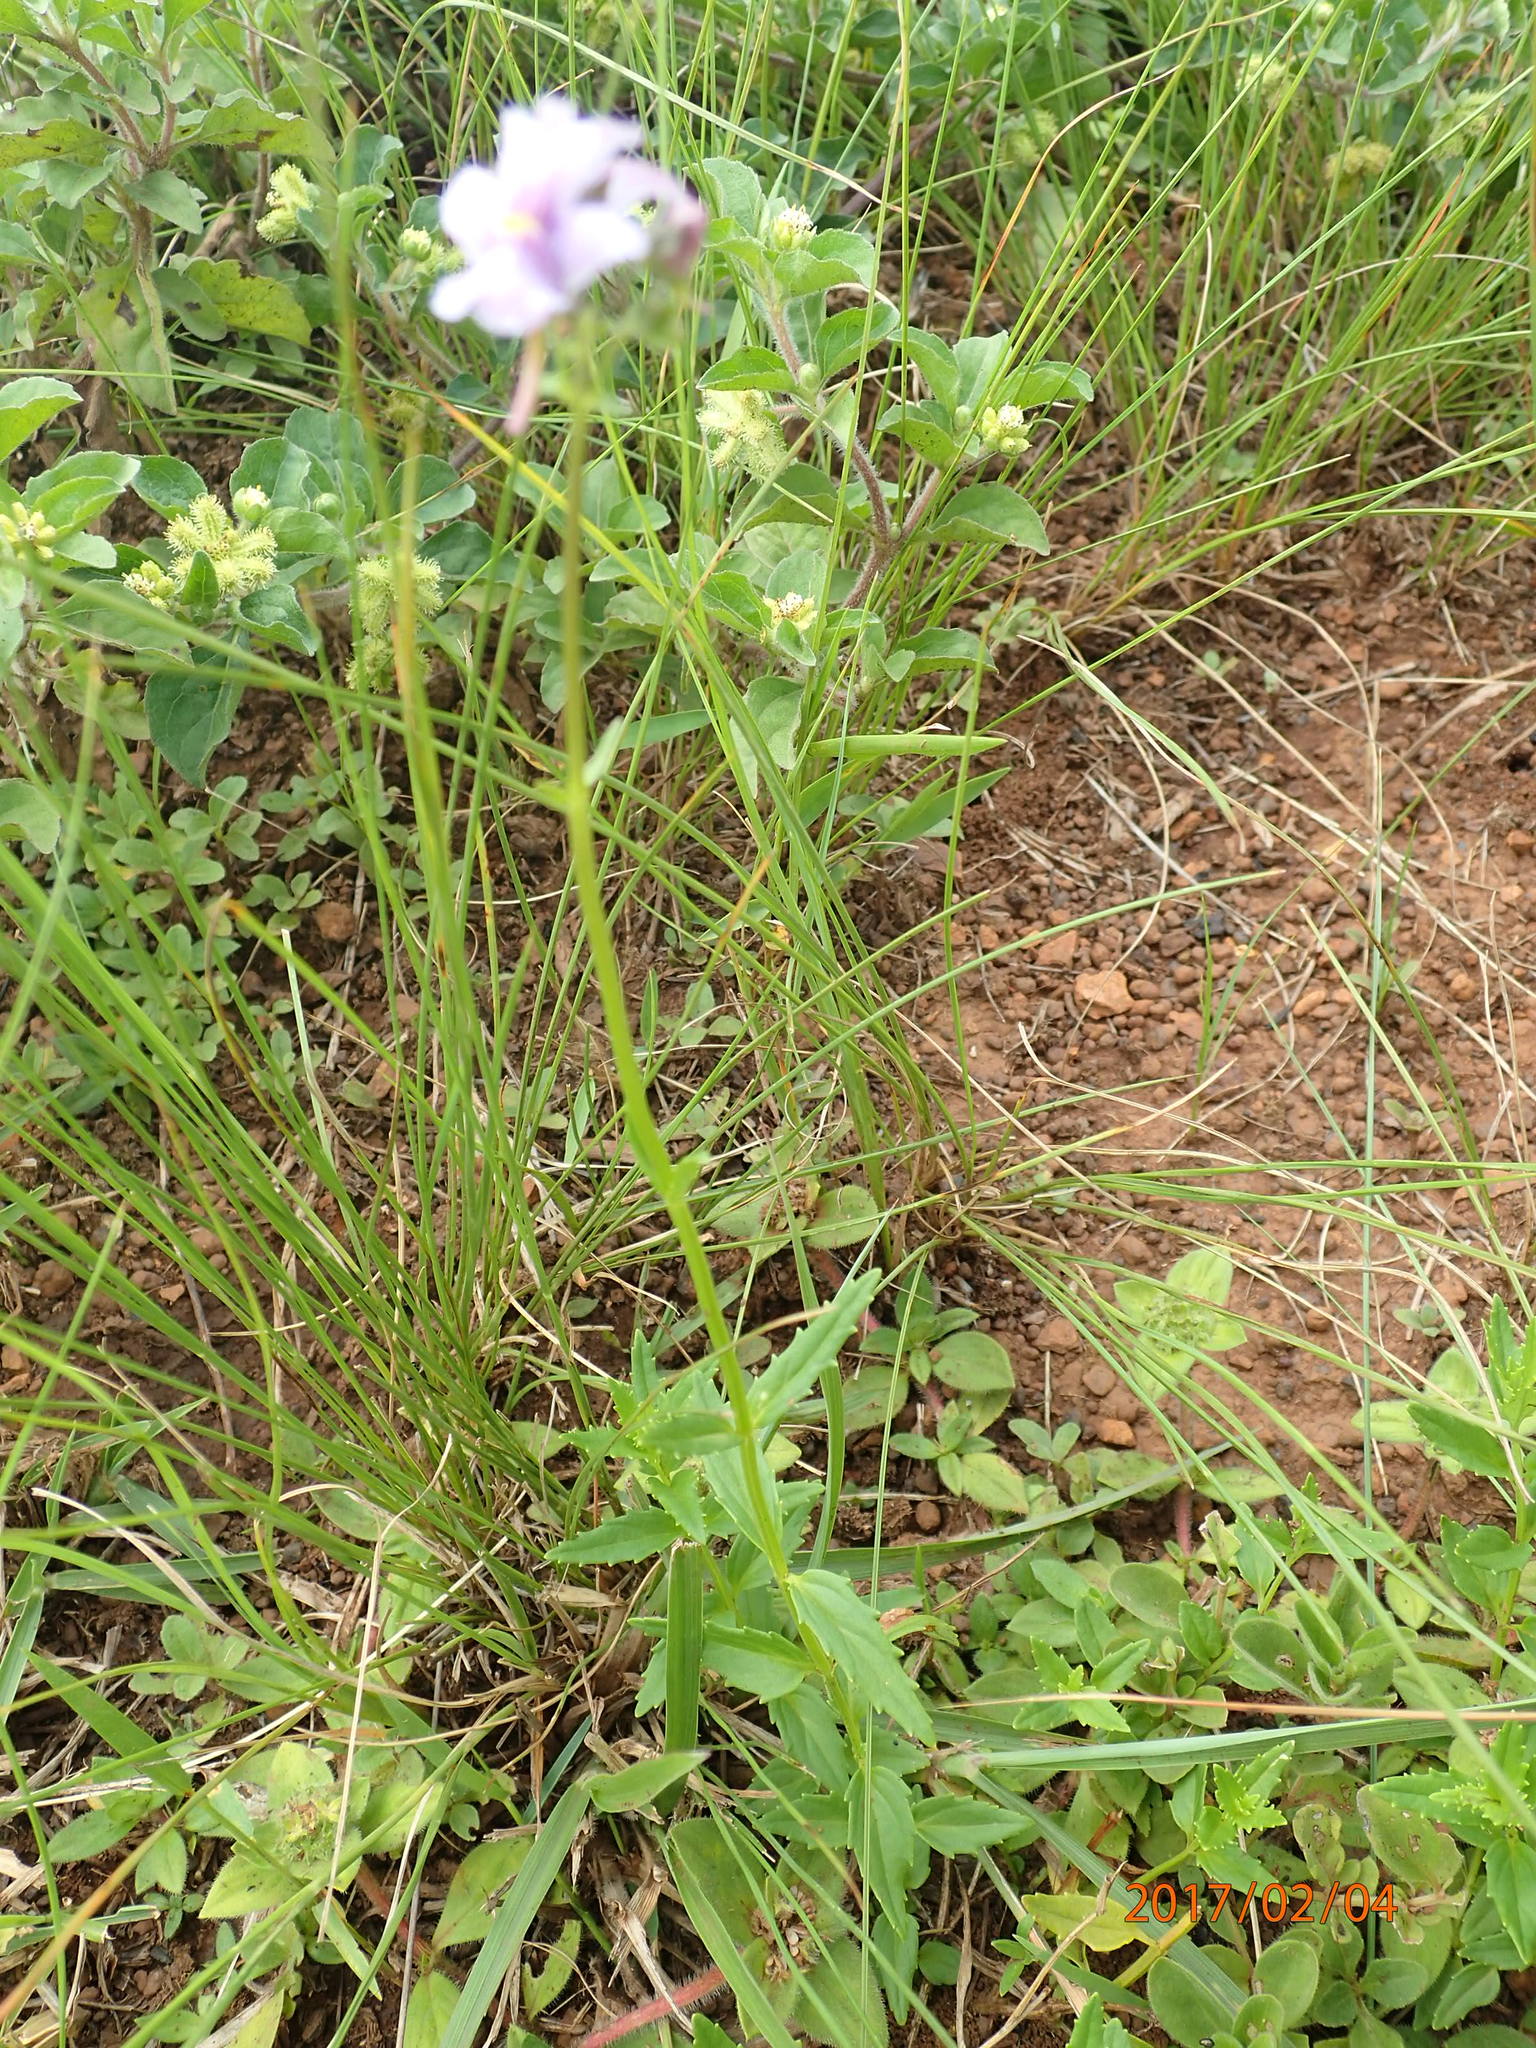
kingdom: Plantae
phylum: Tracheophyta
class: Magnoliopsida
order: Lamiales
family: Scrophulariaceae
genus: Nemesia
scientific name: Nemesia denticulata
